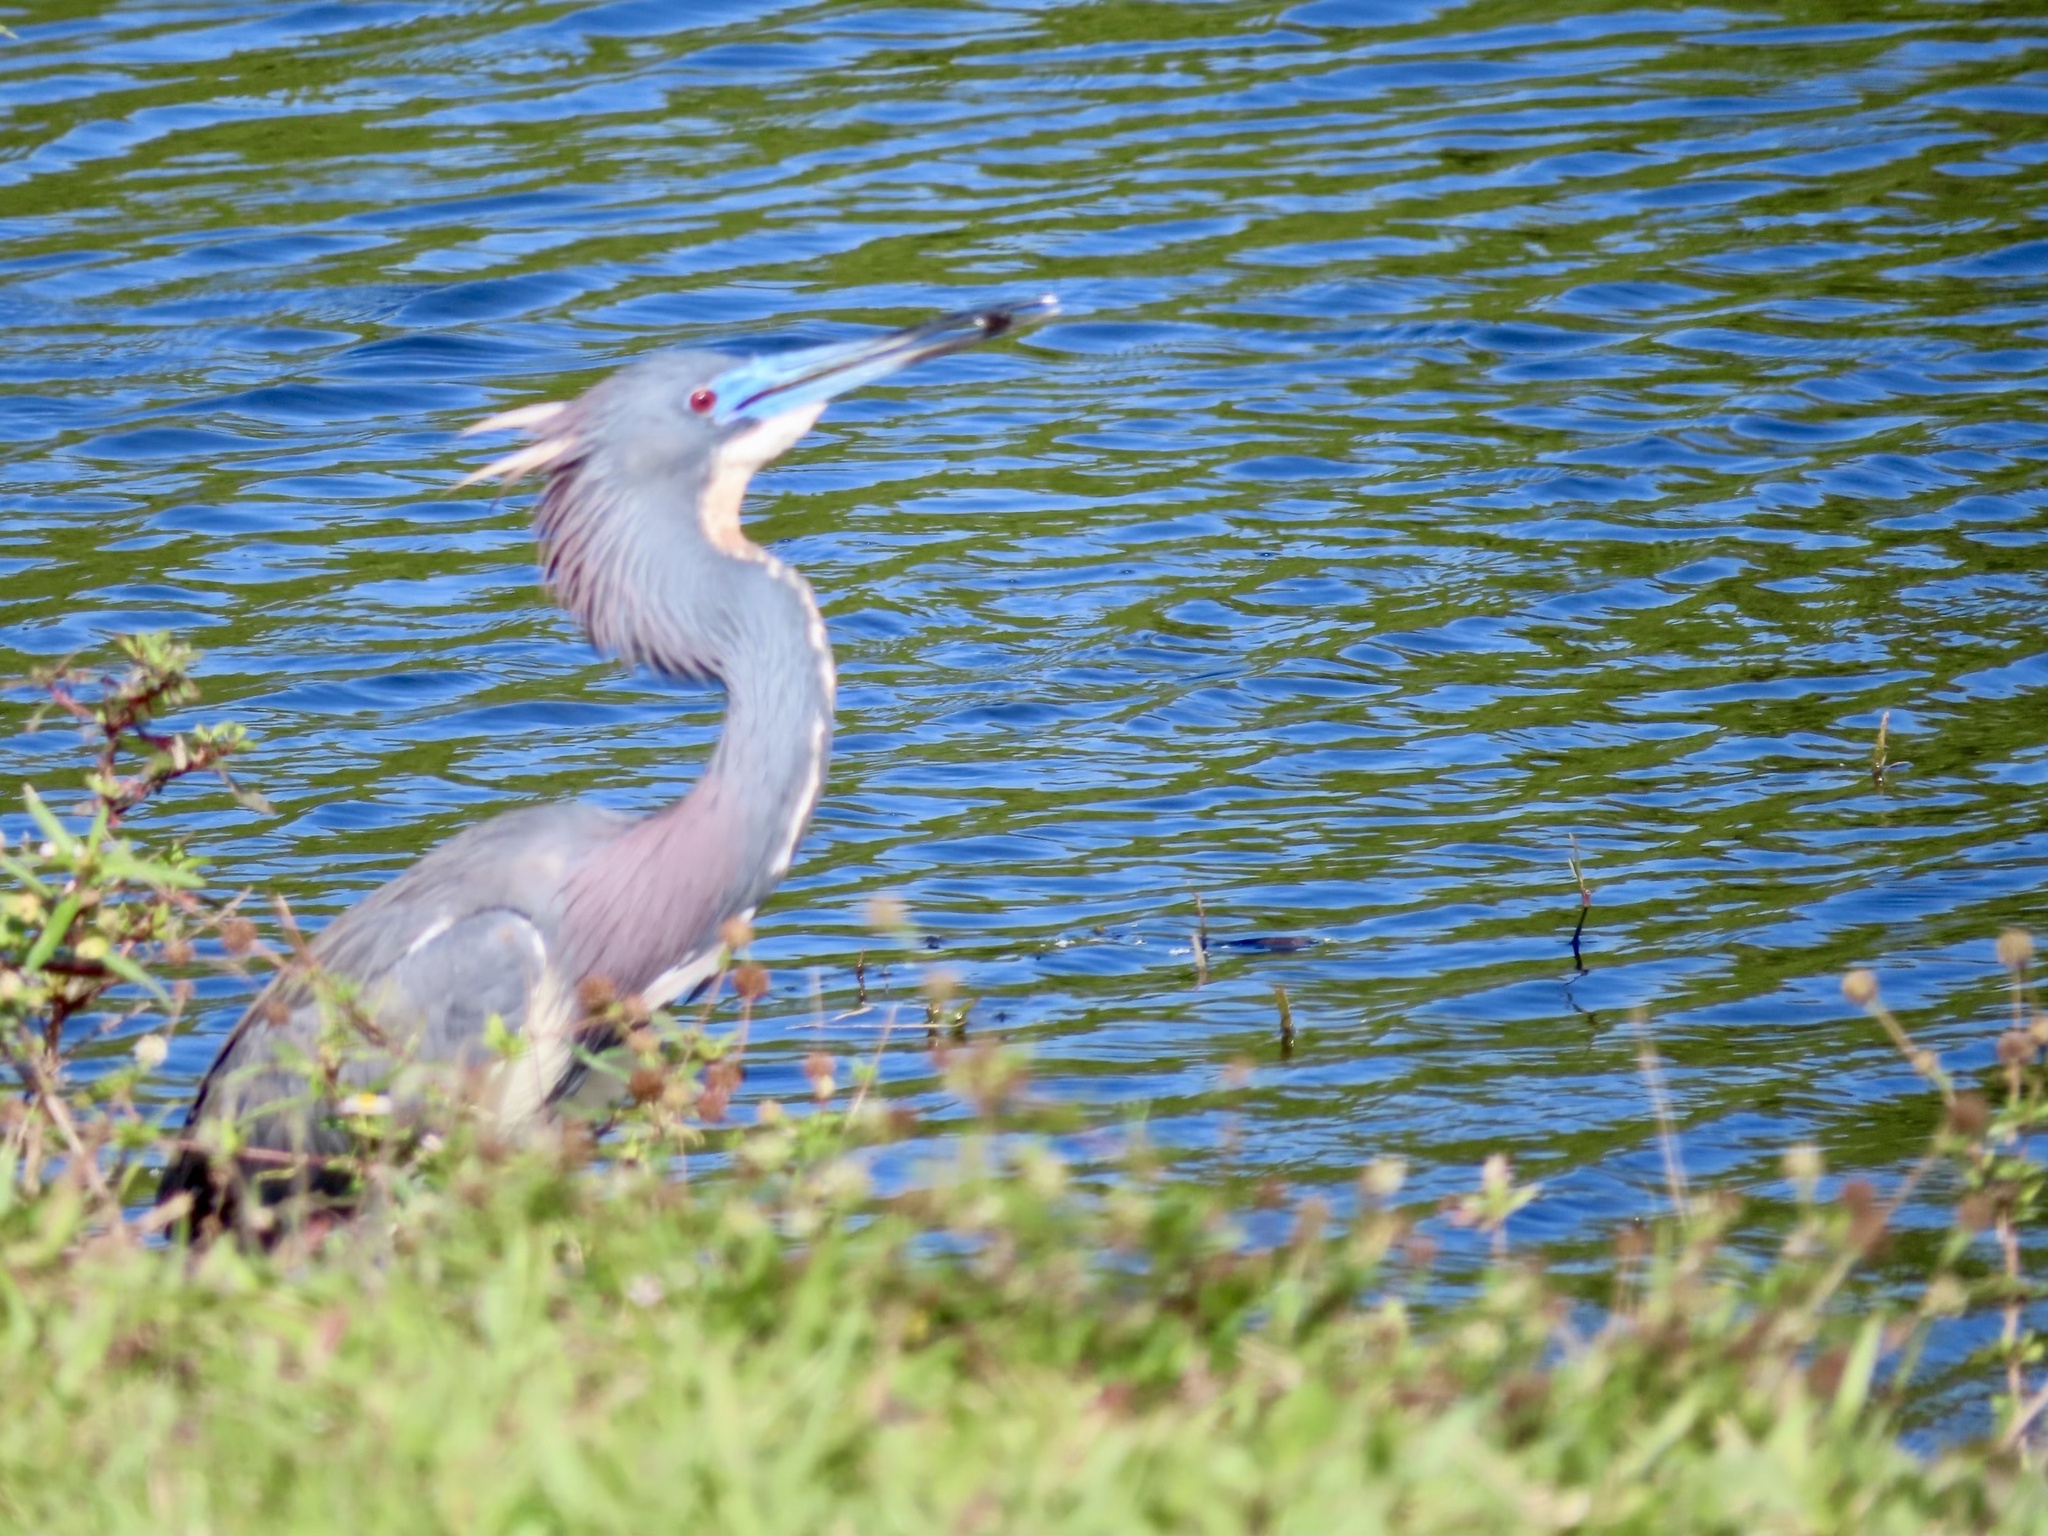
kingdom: Animalia
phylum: Chordata
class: Aves
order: Pelecaniformes
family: Ardeidae
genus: Egretta
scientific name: Egretta tricolor
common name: Tricolored heron
